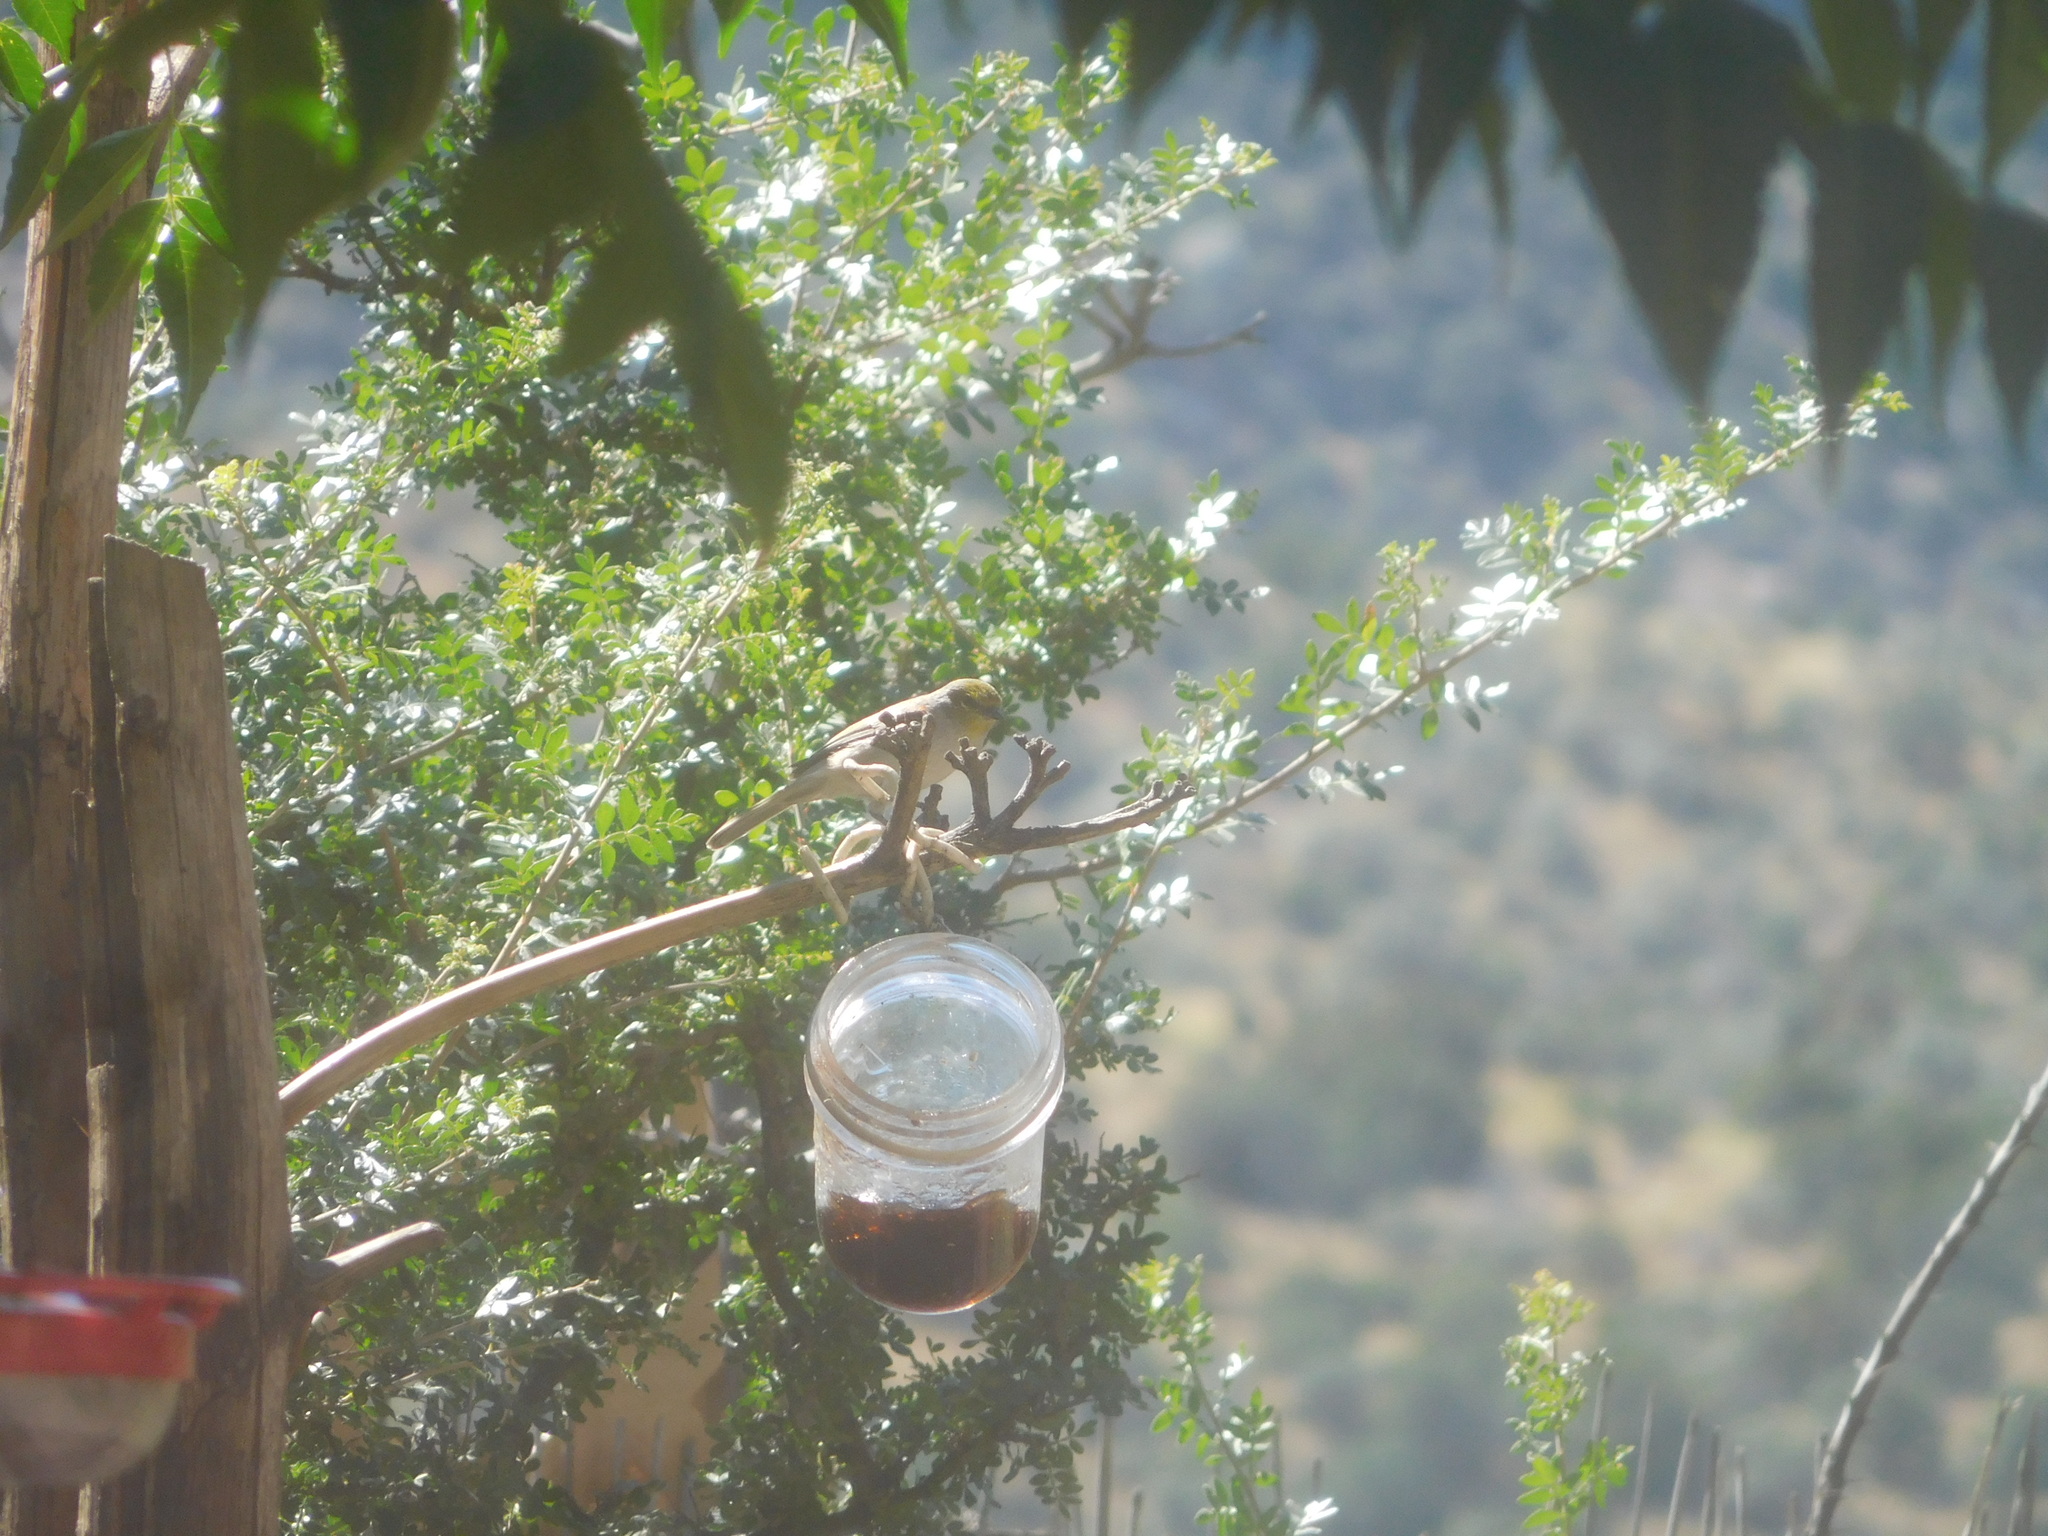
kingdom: Animalia
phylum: Chordata
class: Aves
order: Passeriformes
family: Remizidae
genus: Auriparus
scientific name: Auriparus flaviceps
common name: Verdin
